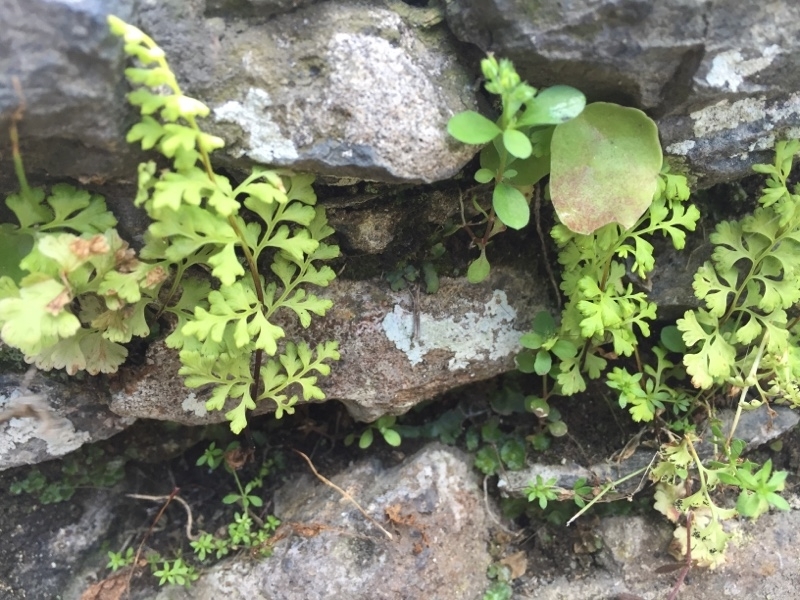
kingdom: Plantae
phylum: Tracheophyta
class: Polypodiopsida
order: Polypodiales
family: Pteridaceae
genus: Anogramma
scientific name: Anogramma leptophylla
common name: Jersey fern
